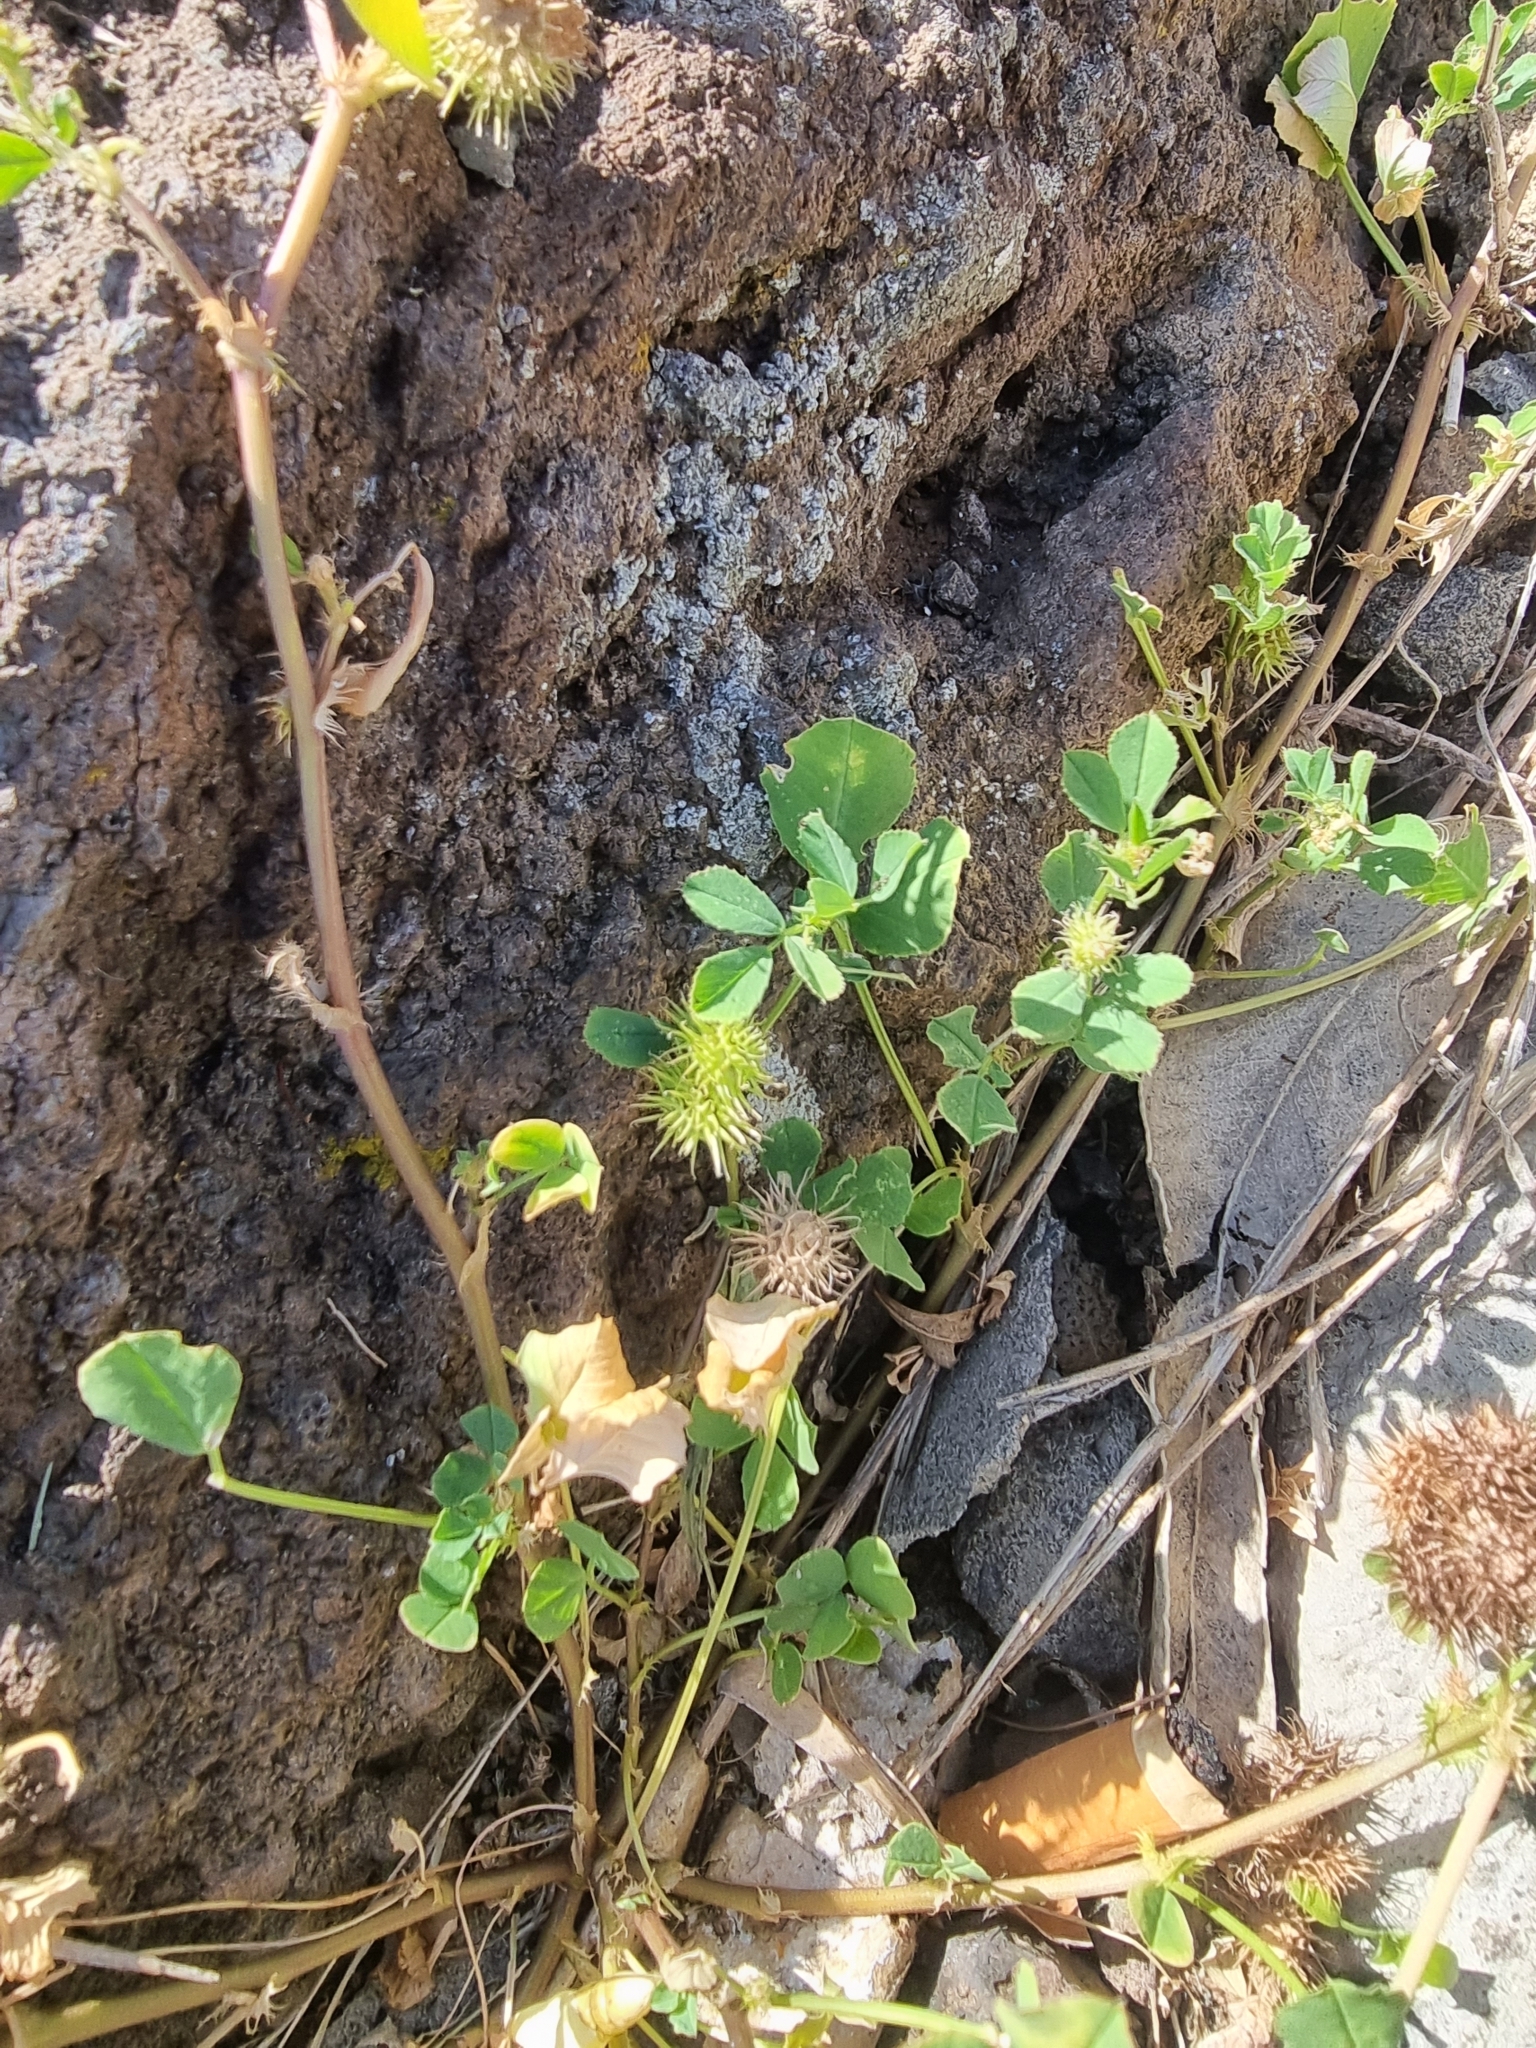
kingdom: Plantae
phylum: Tracheophyta
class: Magnoliopsida
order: Fabales
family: Fabaceae
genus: Medicago
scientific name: Medicago polymorpha
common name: Burclover
